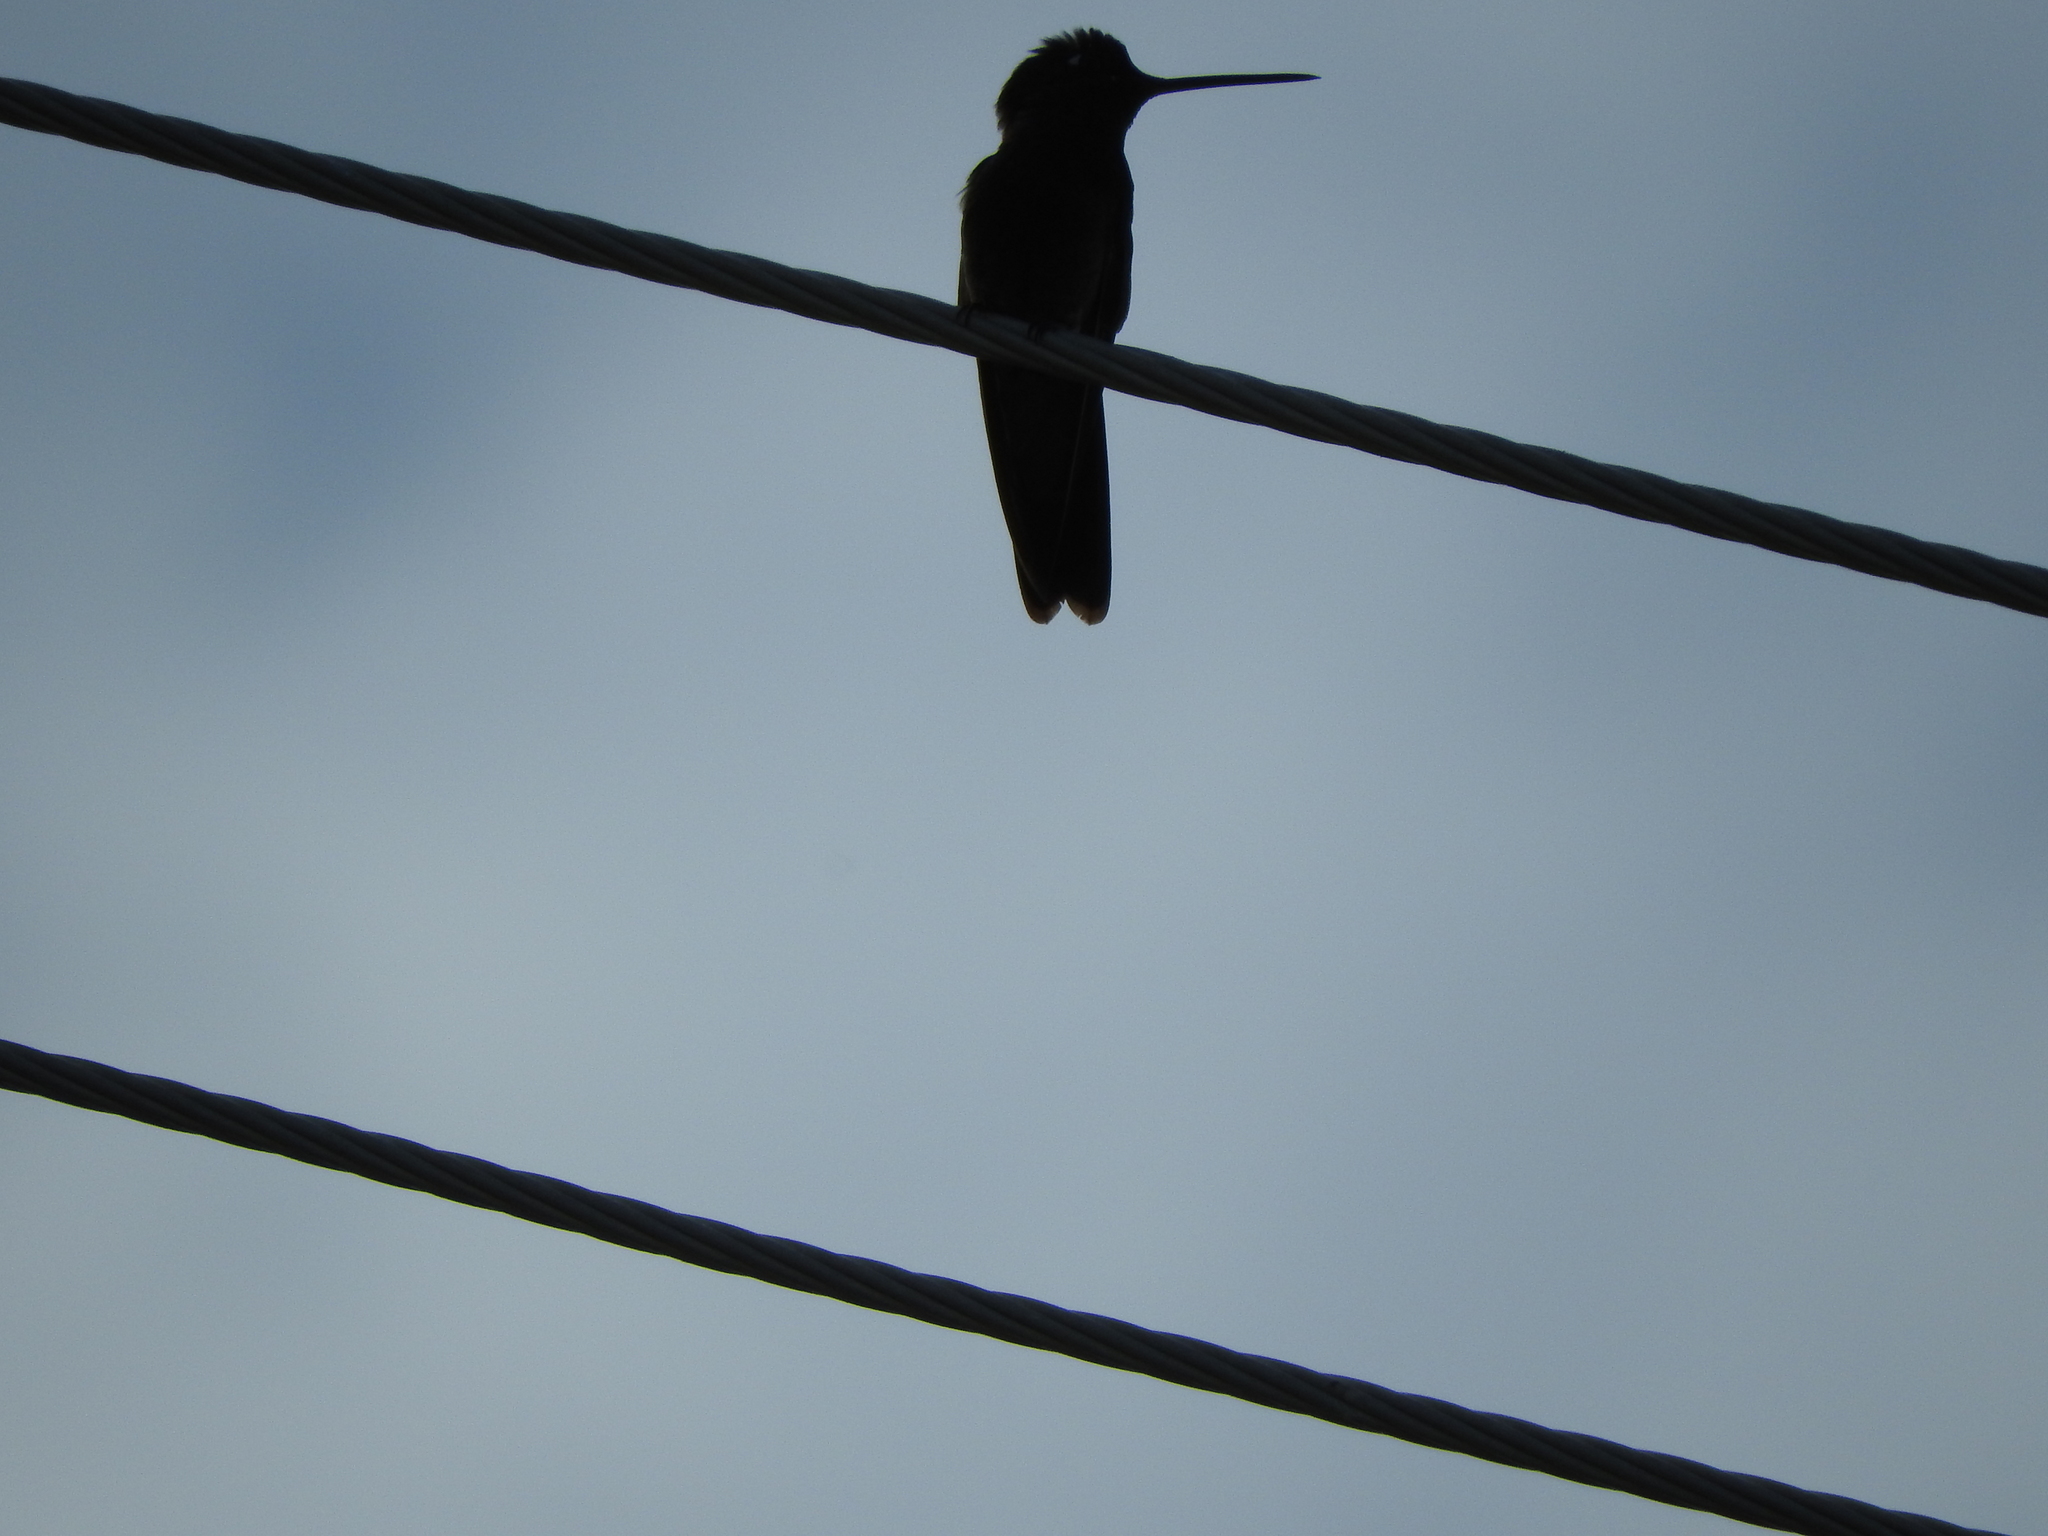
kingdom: Animalia
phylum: Chordata
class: Aves
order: Apodiformes
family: Trochilidae
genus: Cynanthus
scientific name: Cynanthus latirostris
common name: Broad-billed hummingbird
